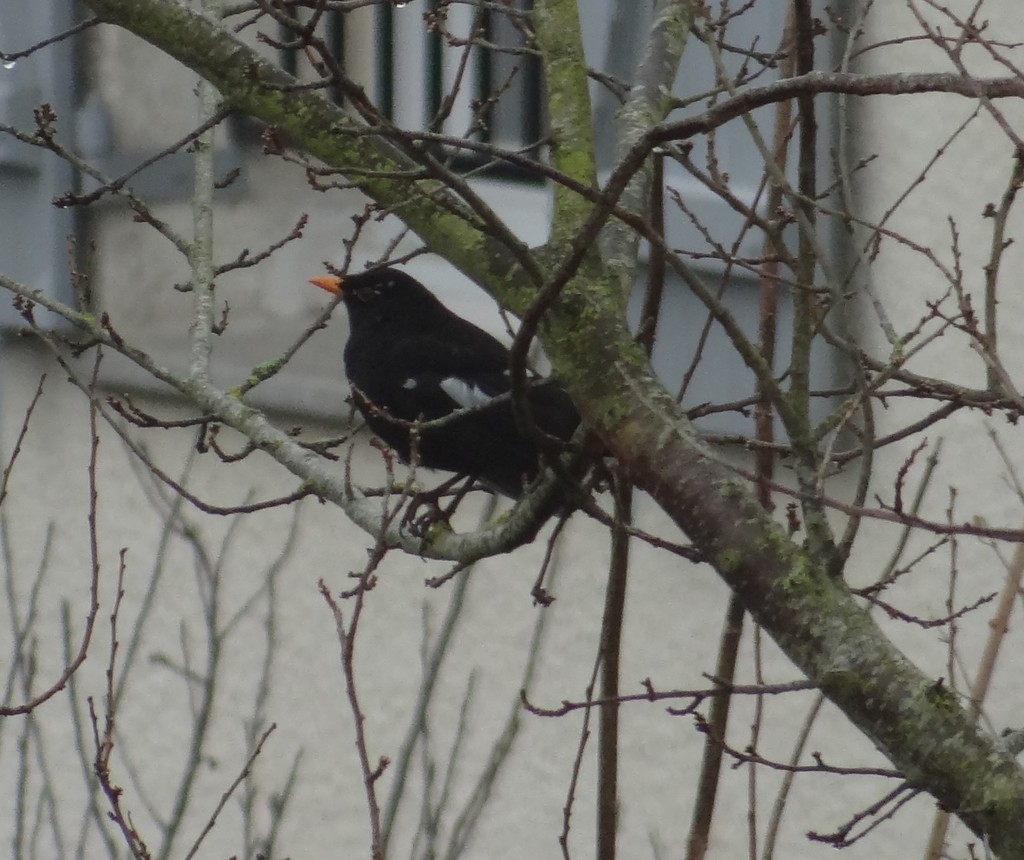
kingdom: Animalia
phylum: Chordata
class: Aves
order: Passeriformes
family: Turdidae
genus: Turdus
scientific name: Turdus merula
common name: Common blackbird
